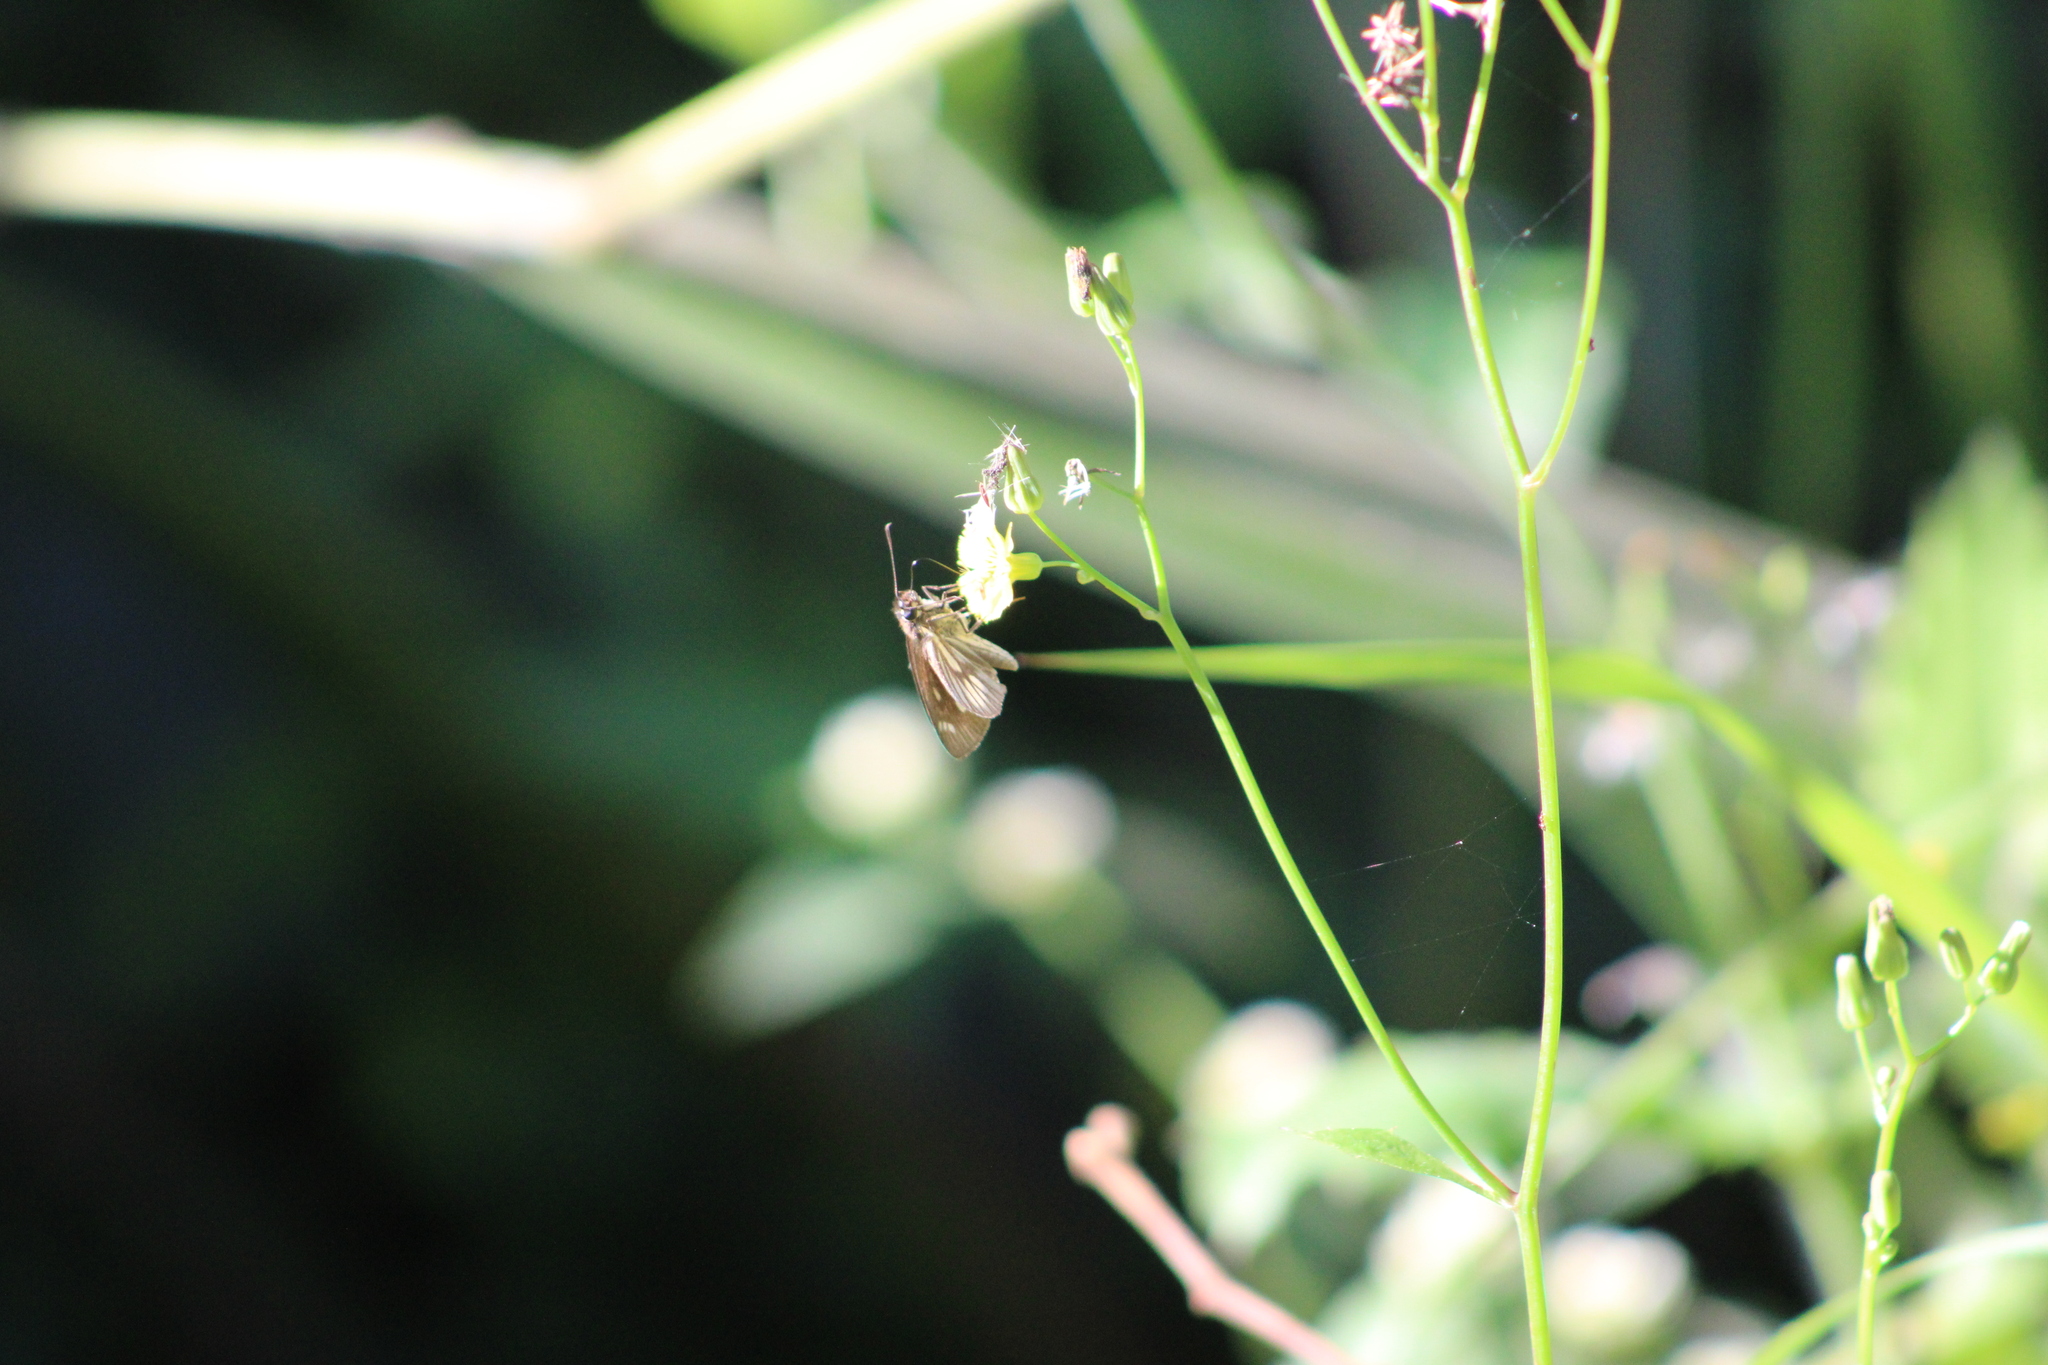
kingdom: Animalia
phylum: Arthropoda
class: Insecta
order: Lepidoptera
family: Hesperiidae
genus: Vehilius
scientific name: Vehilius clavicula
